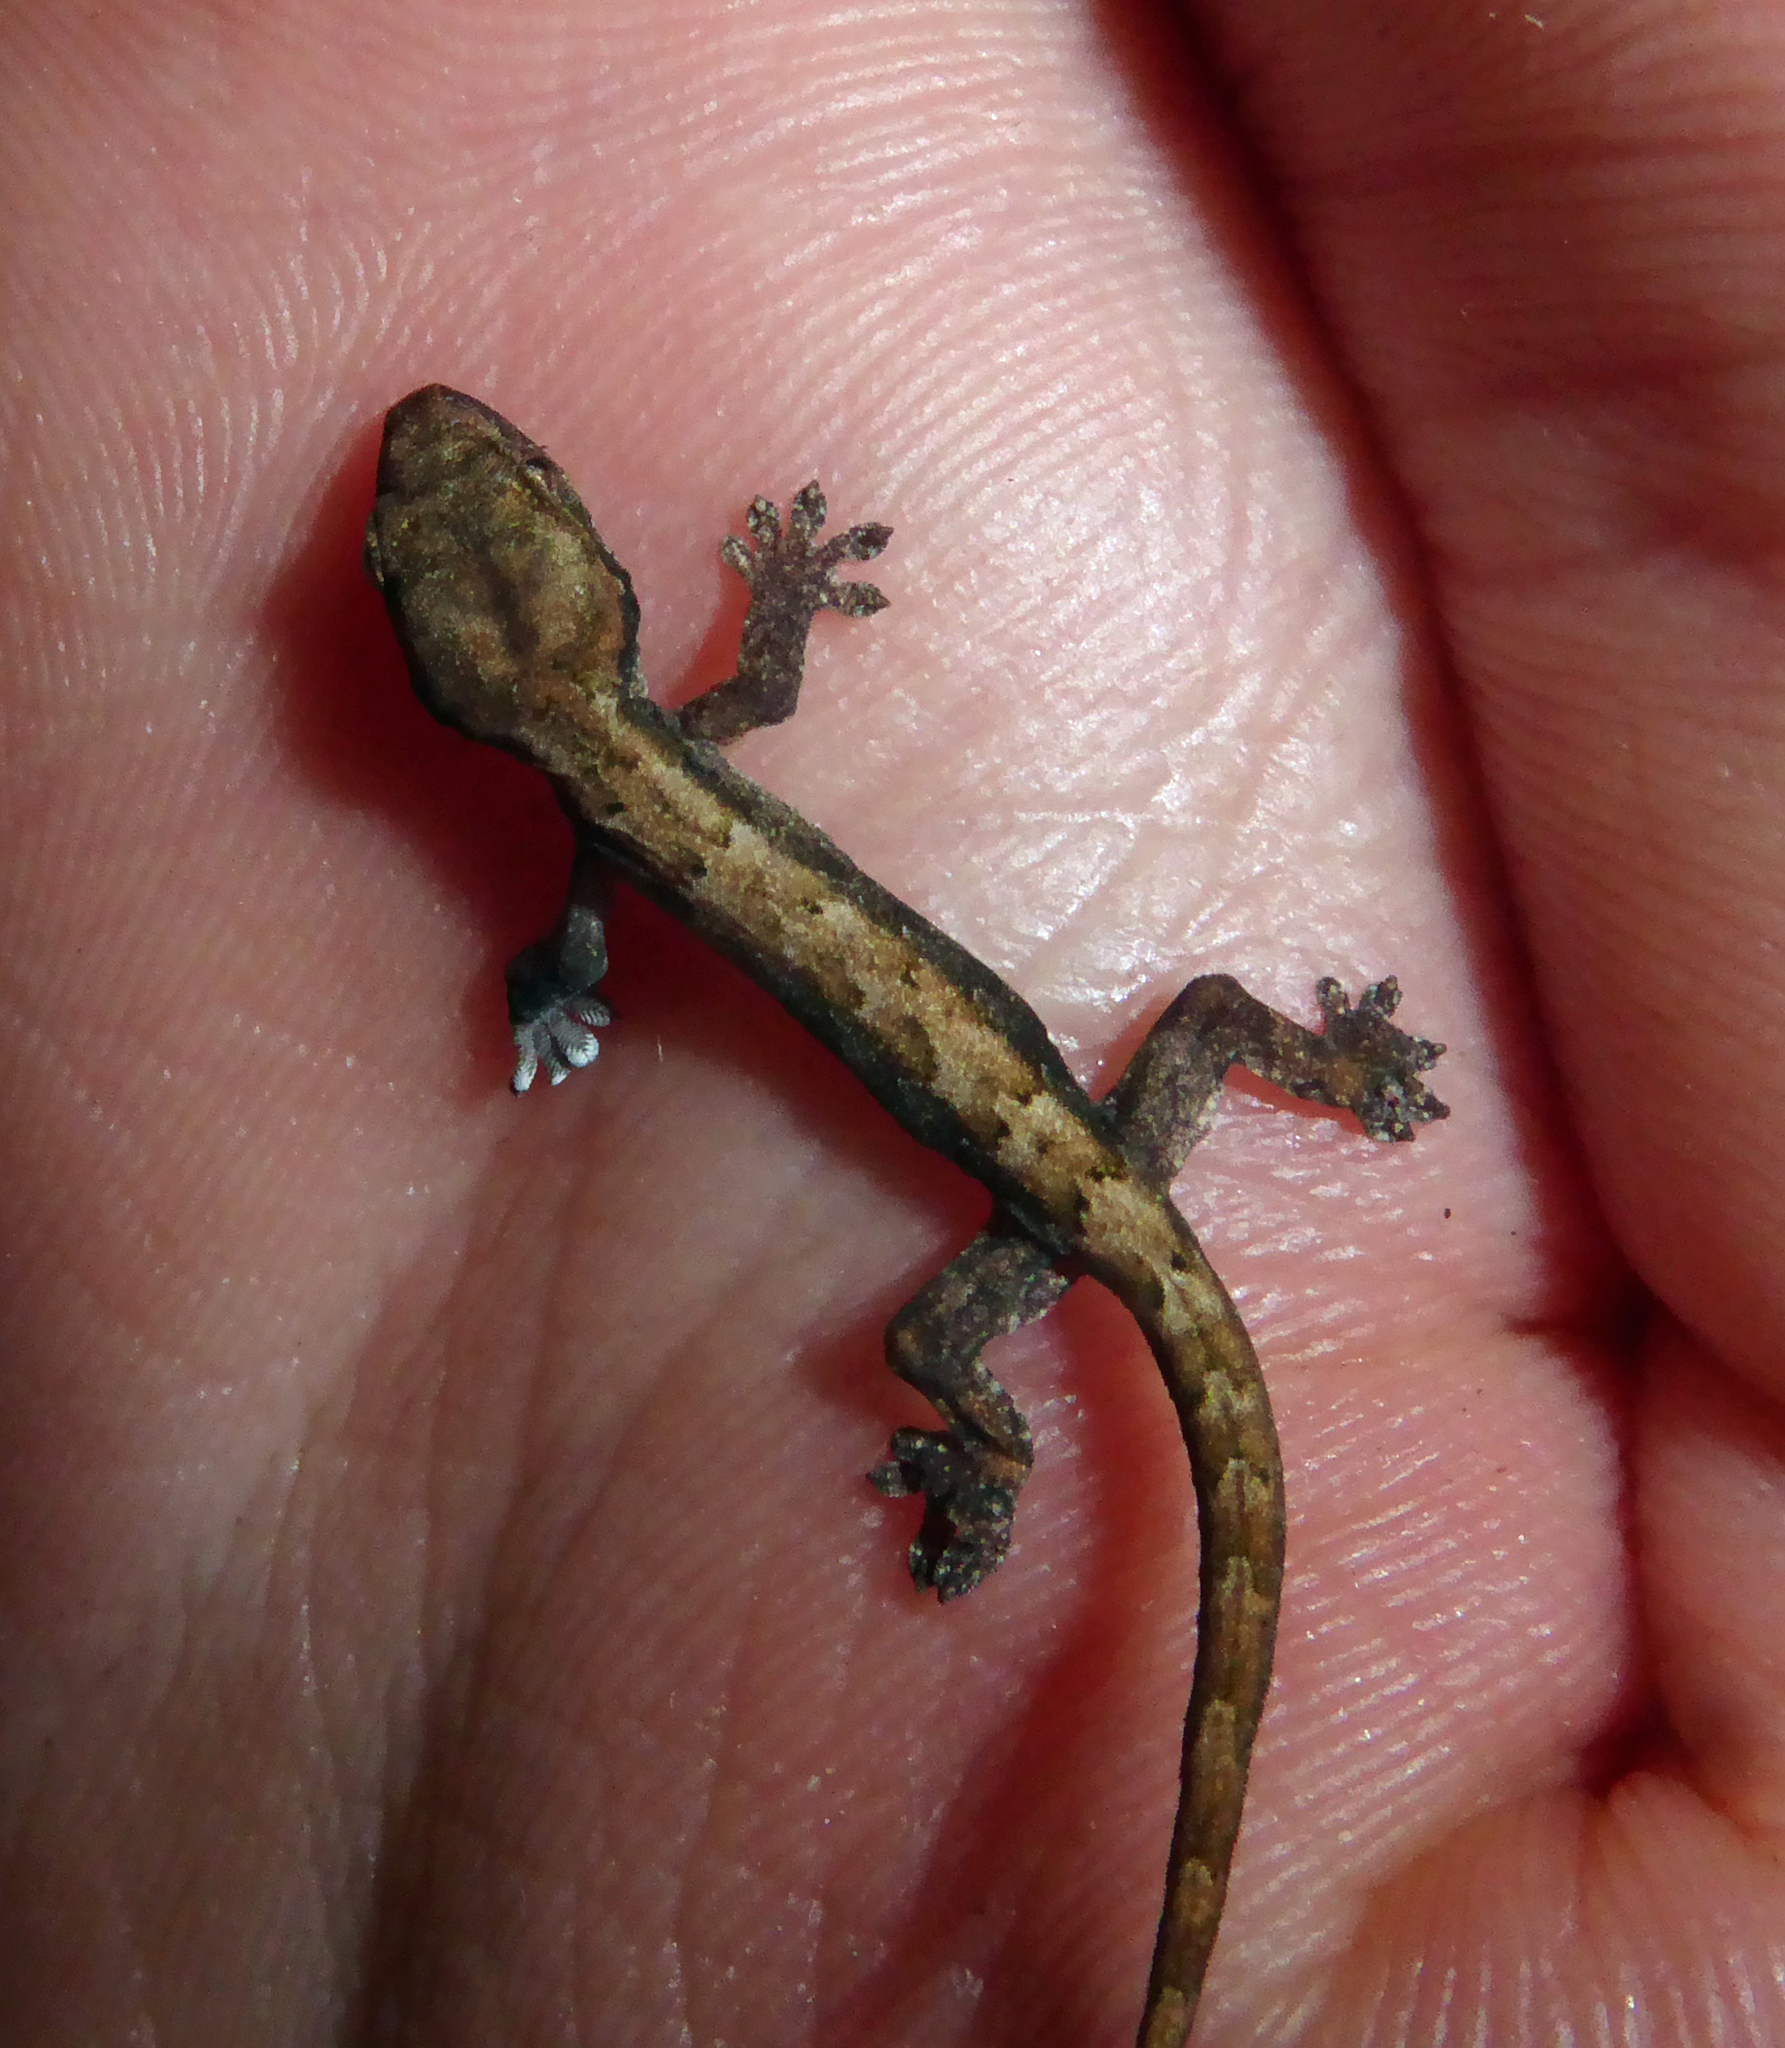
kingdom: Animalia
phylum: Chordata
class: Squamata
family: Gekkonidae
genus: Lepidodactylus
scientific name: Lepidodactylus lugubris
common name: Mourning gecko
